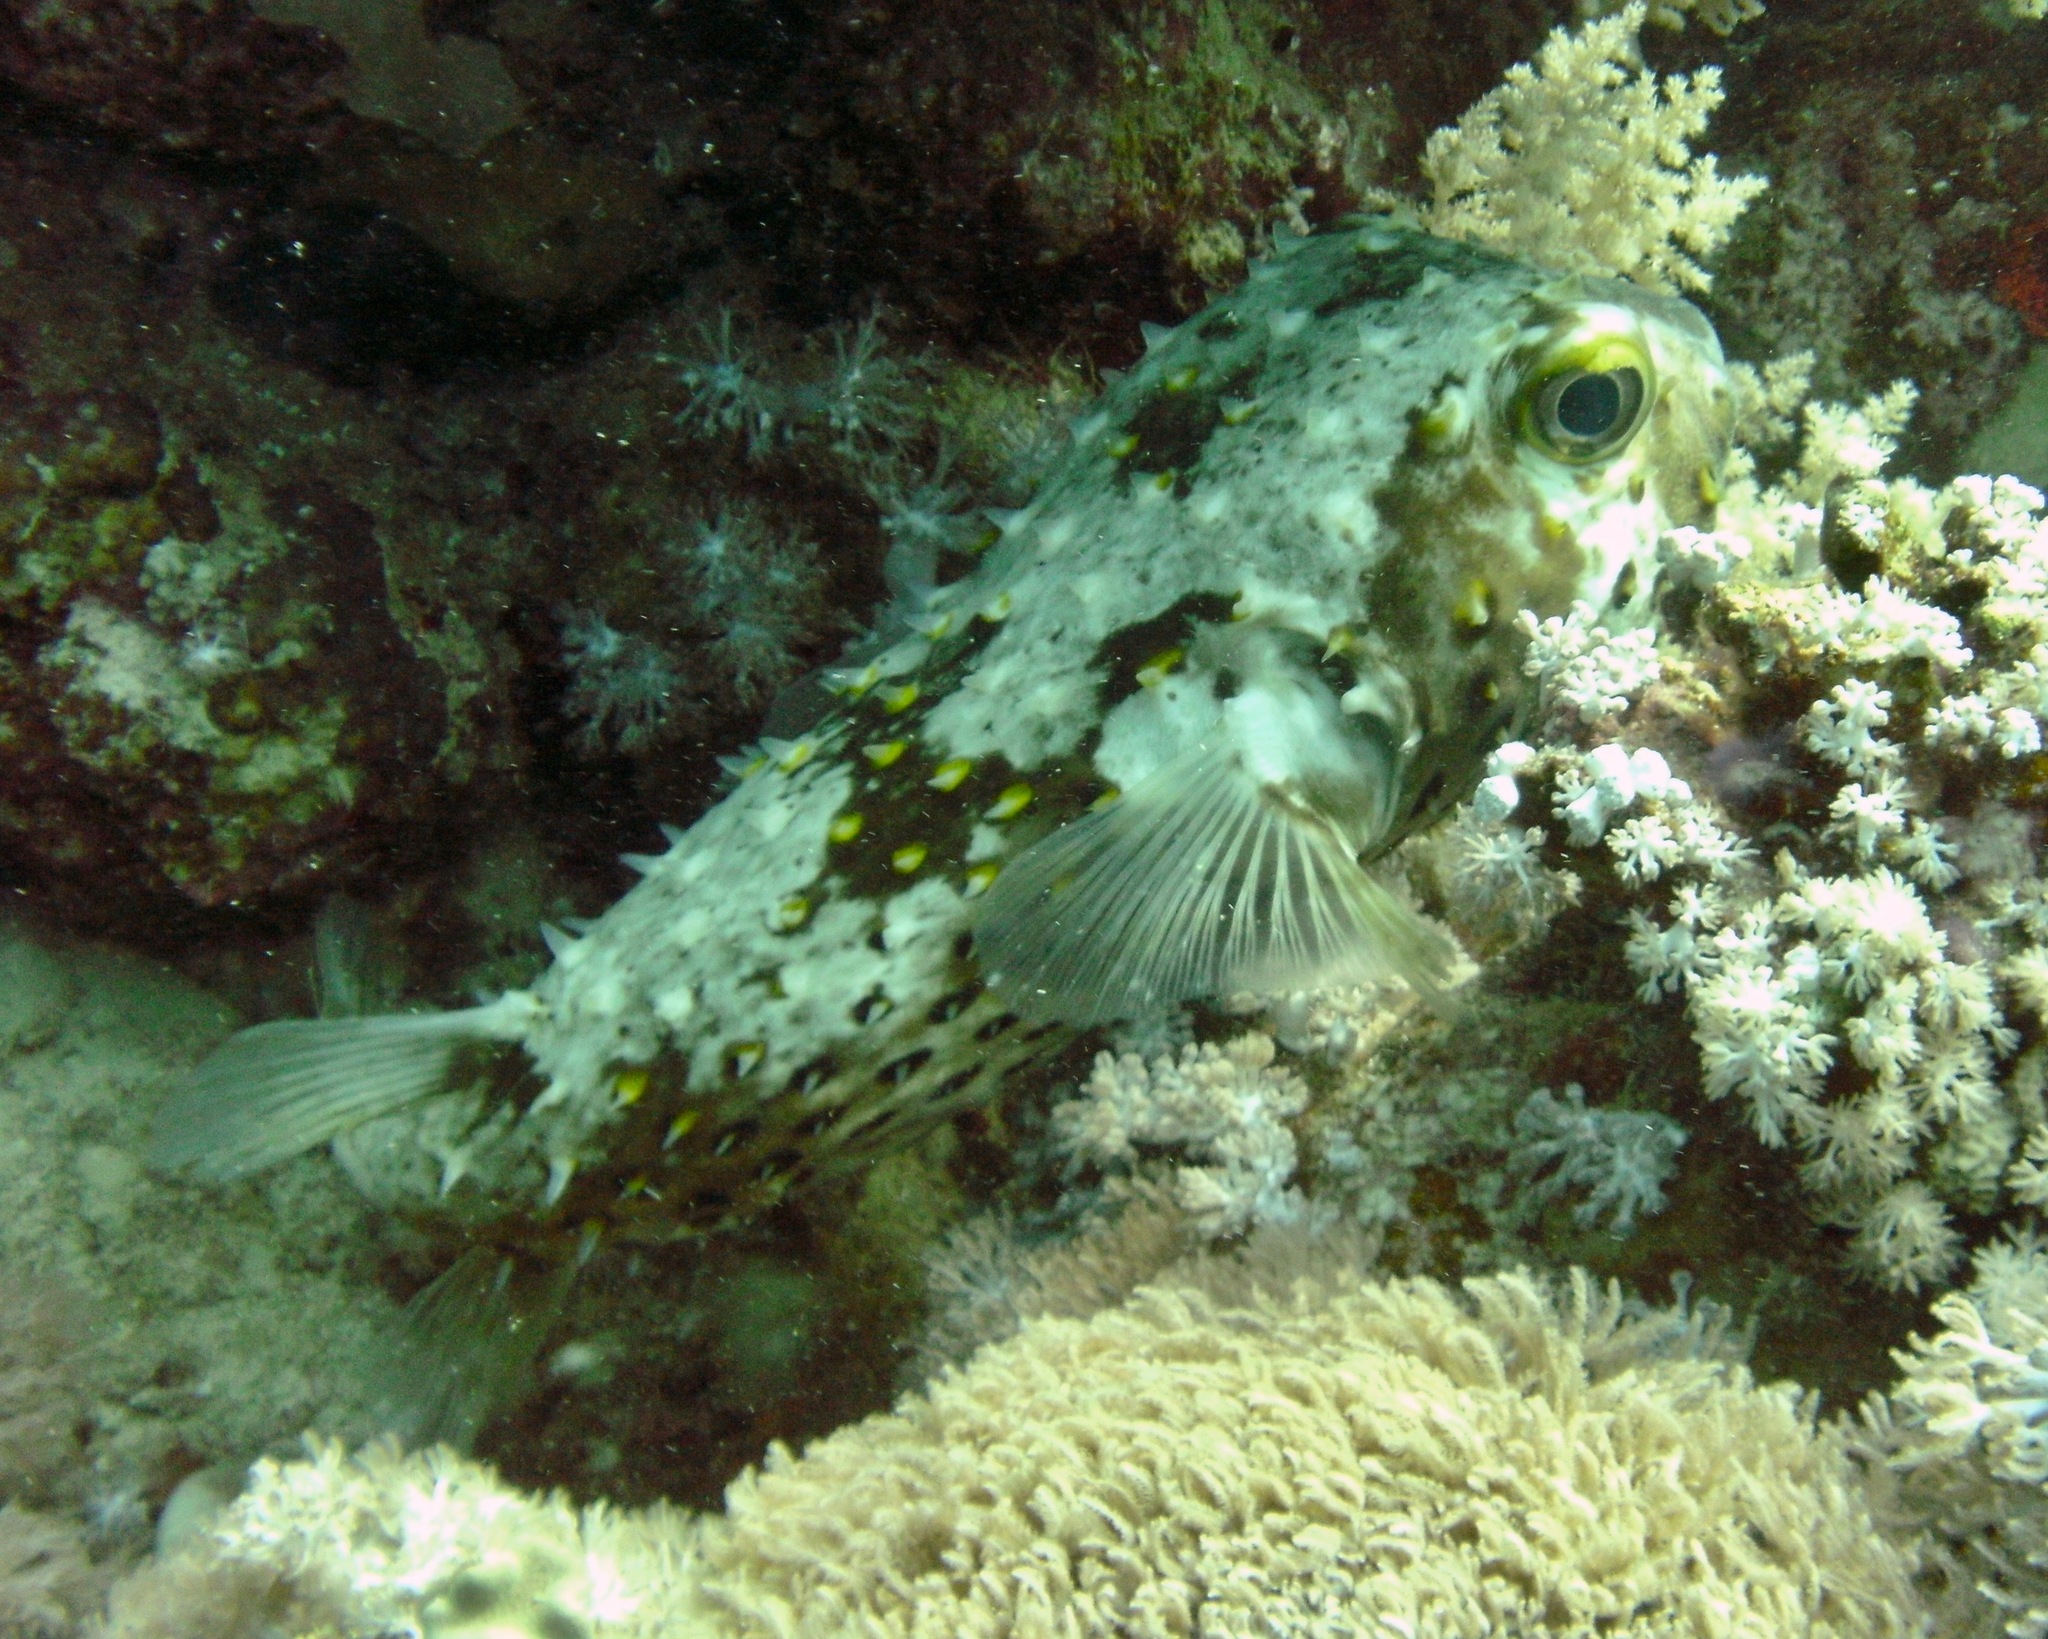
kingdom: Animalia
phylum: Chordata
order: Tetraodontiformes
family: Diodontidae
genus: Cyclichthys
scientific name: Cyclichthys spilostylus
